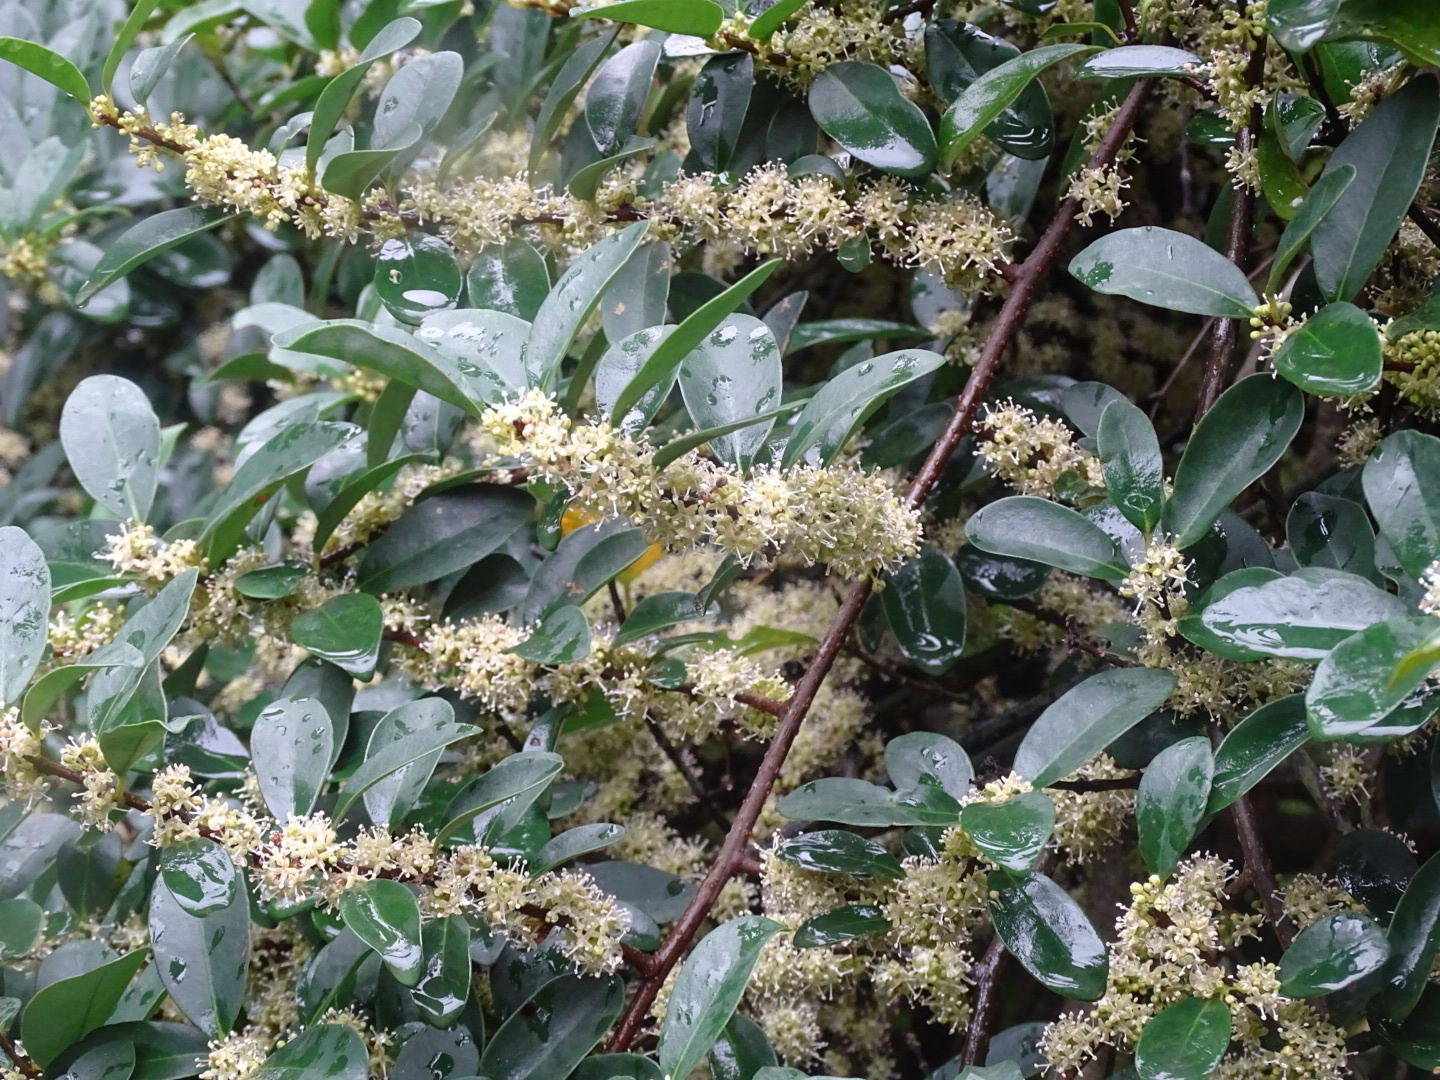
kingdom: Plantae
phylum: Tracheophyta
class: Magnoliopsida
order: Ericales
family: Primulaceae
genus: Embelia
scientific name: Embelia laeta
